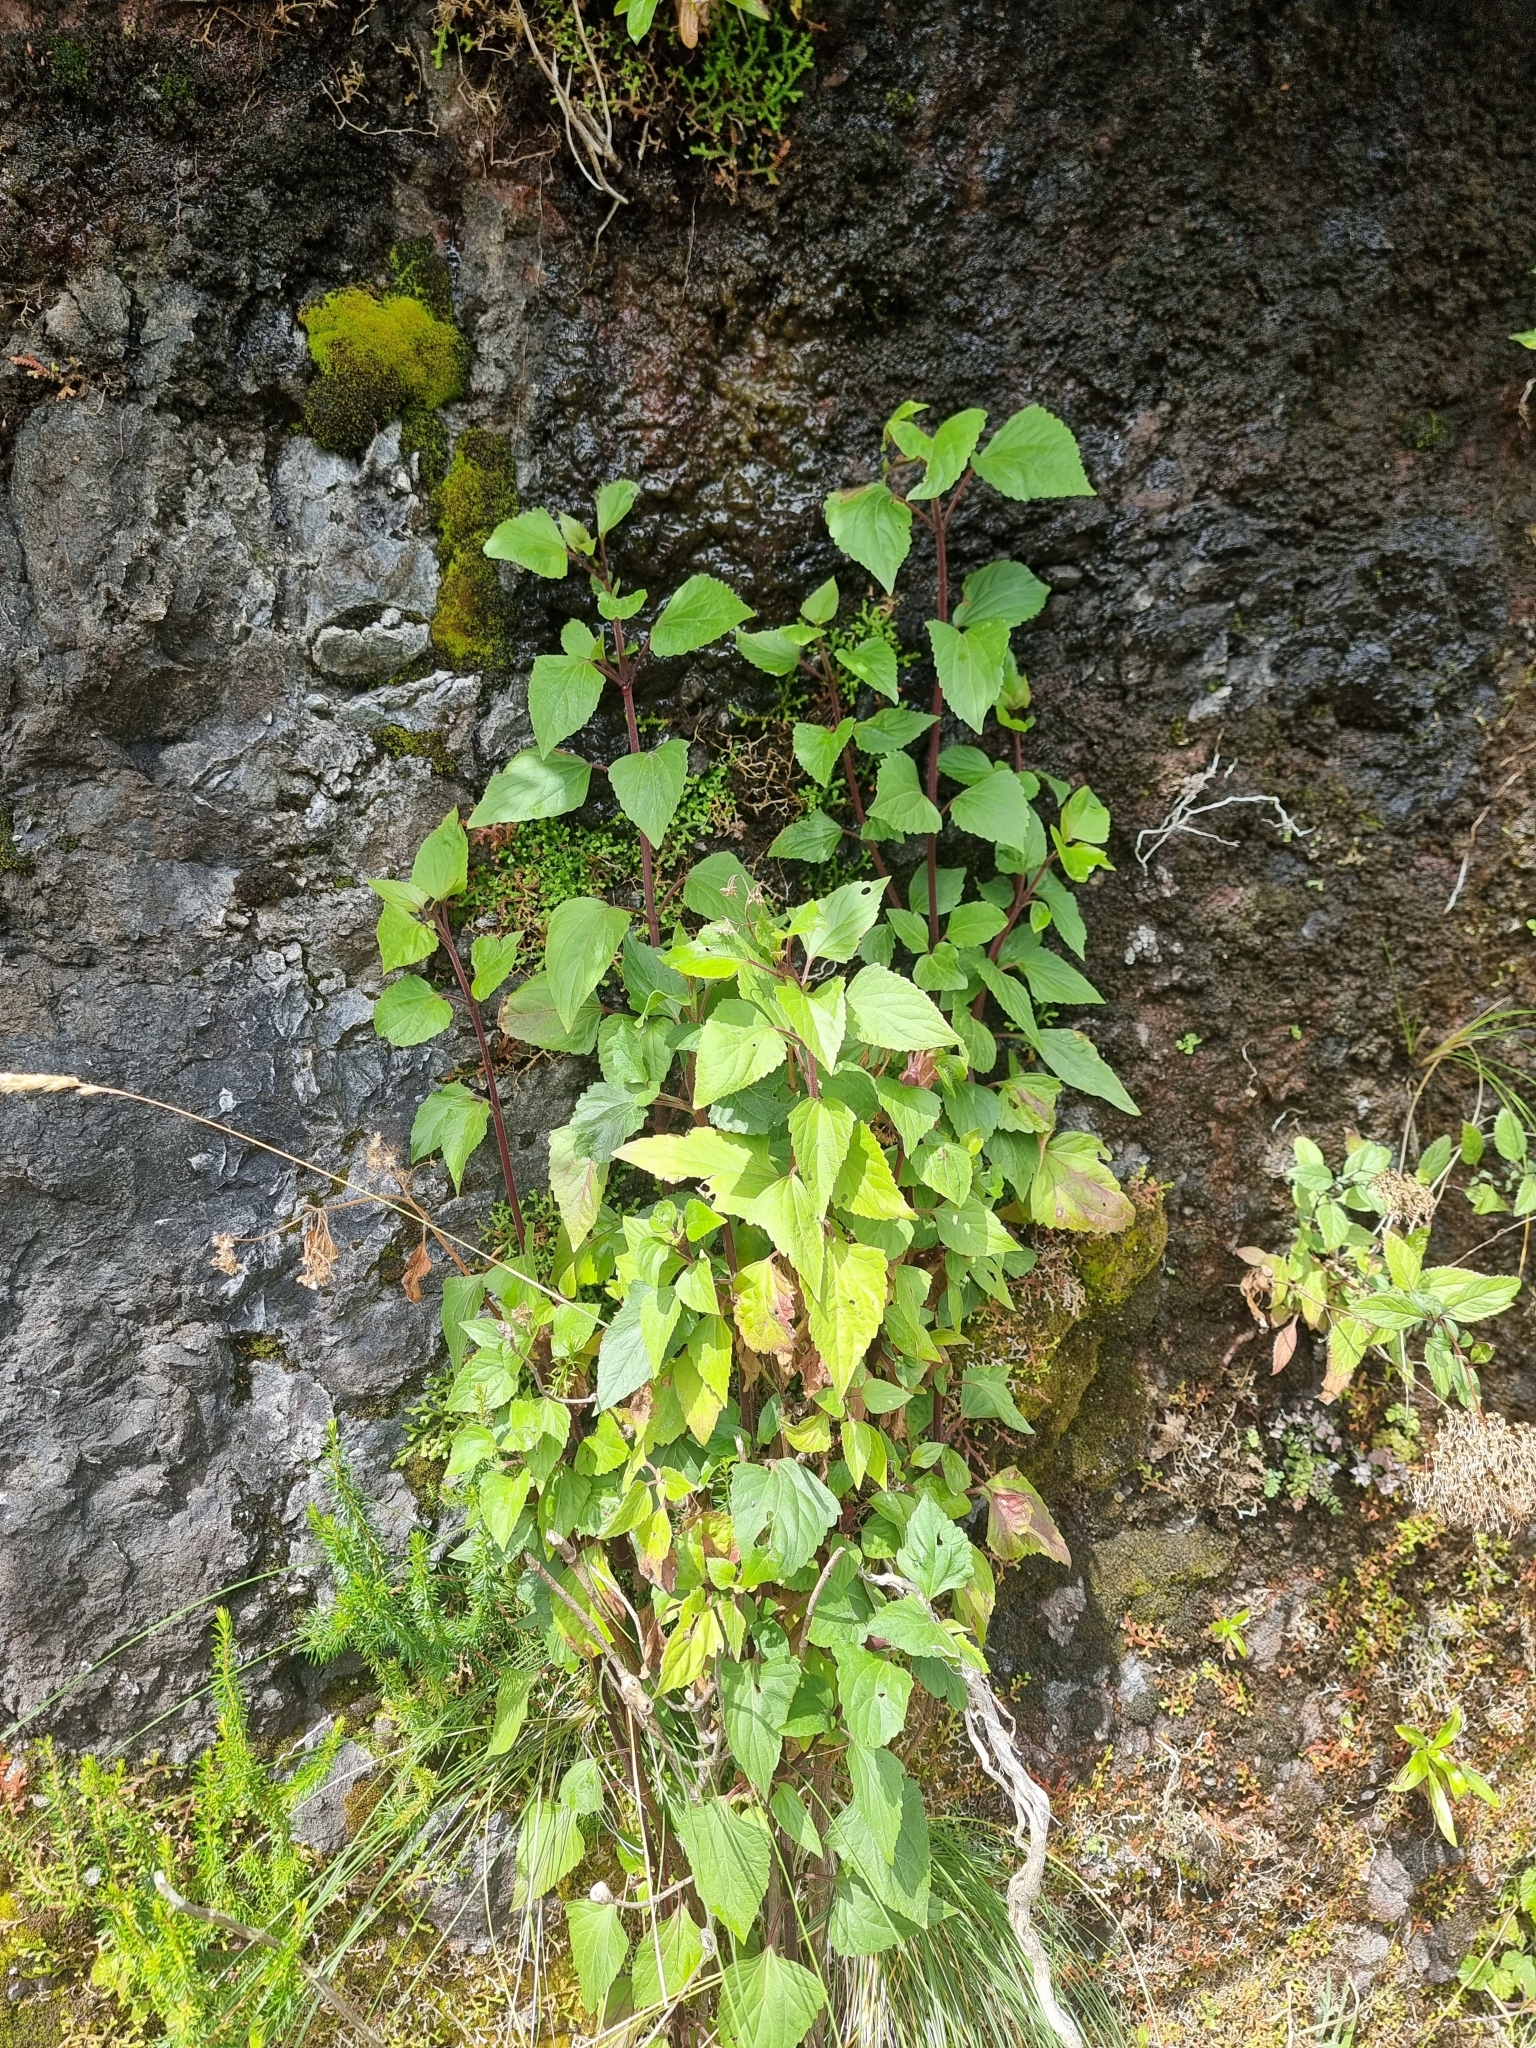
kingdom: Plantae
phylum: Tracheophyta
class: Magnoliopsida
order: Asterales
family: Asteraceae
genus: Ageratina
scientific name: Ageratina adenophora
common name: Sticky snakeroot
